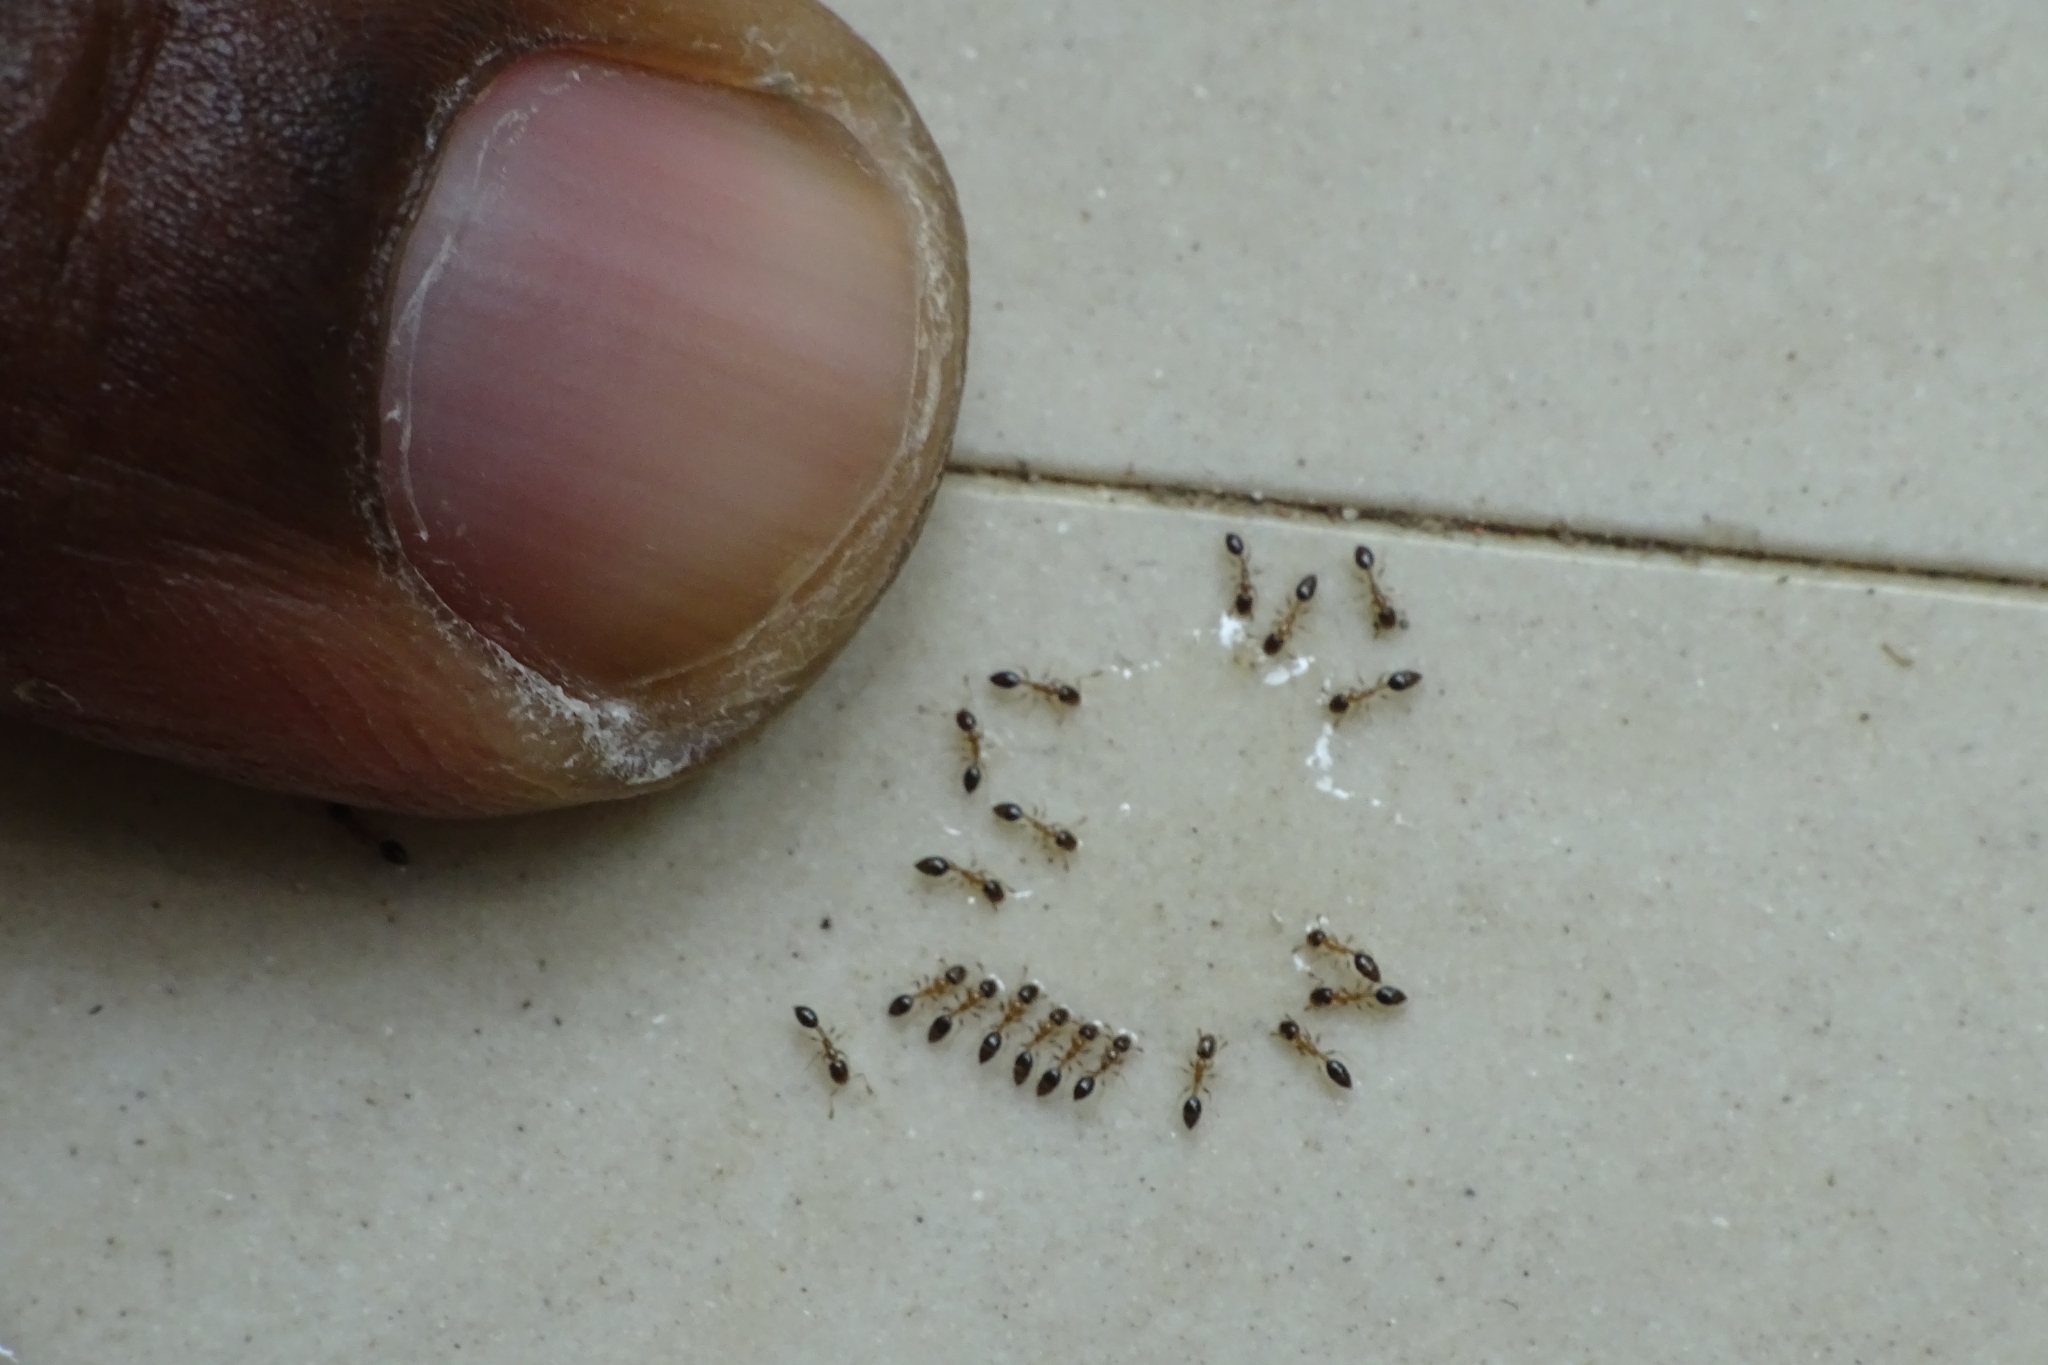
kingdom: Animalia
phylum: Arthropoda
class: Insecta
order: Hymenoptera
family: Formicidae
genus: Monomorium
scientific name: Monomorium floricola
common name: Bicolored trailing ant
